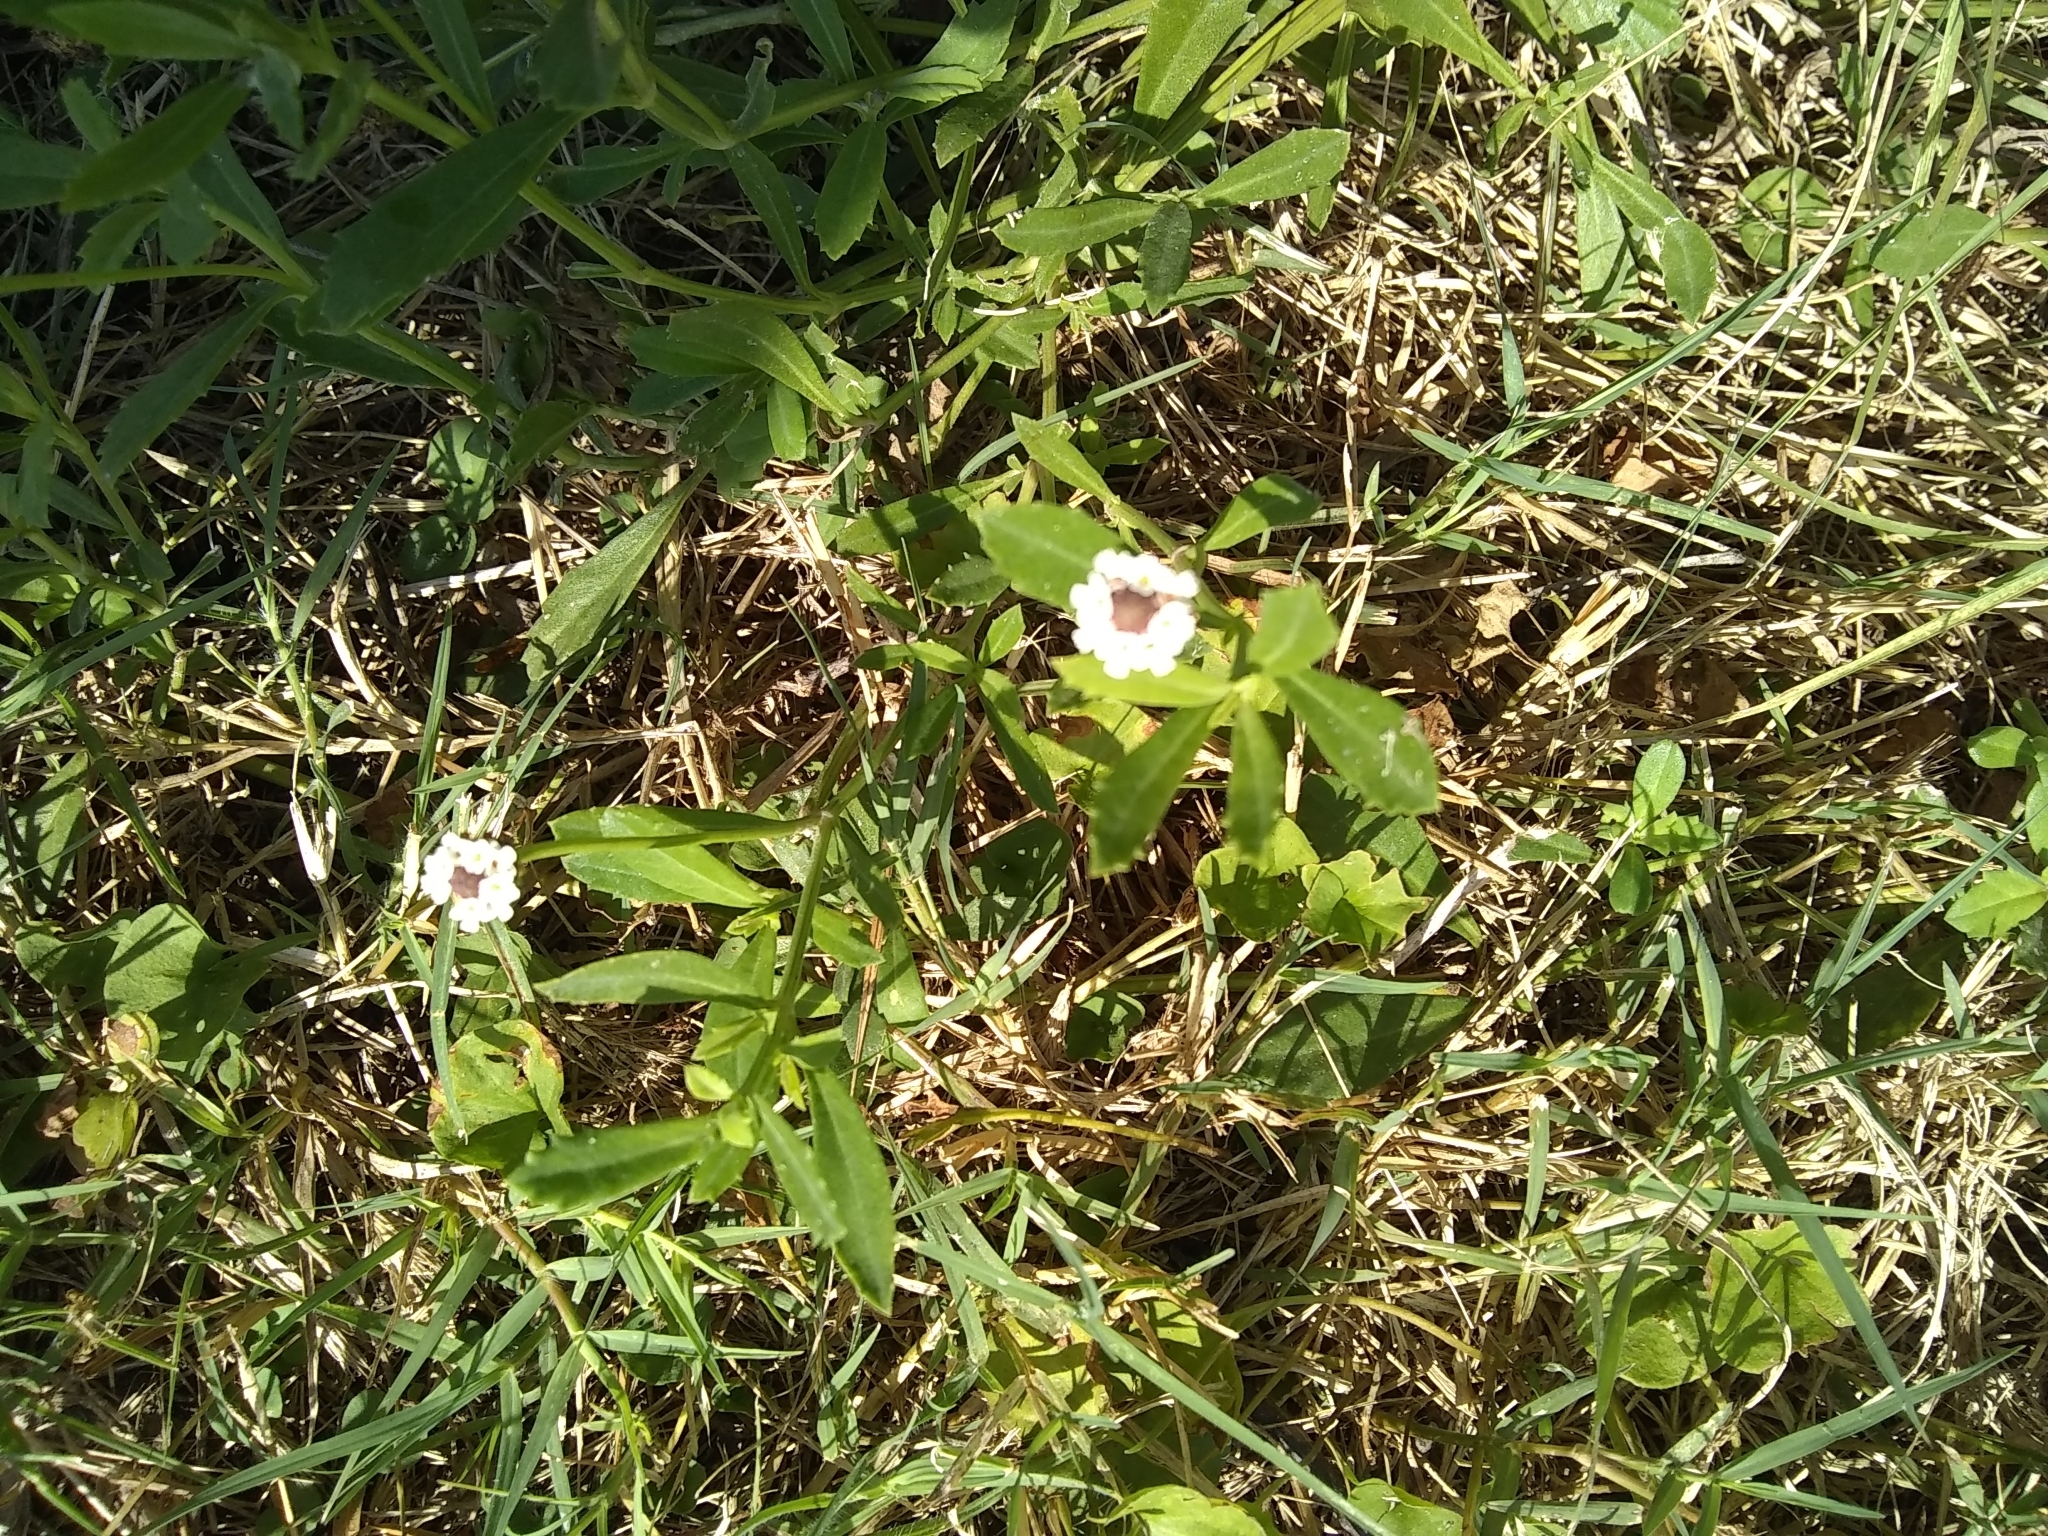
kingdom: Plantae
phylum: Tracheophyta
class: Magnoliopsida
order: Lamiales
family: Verbenaceae
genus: Phyla
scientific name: Phyla nodiflora
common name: Frogfruit
